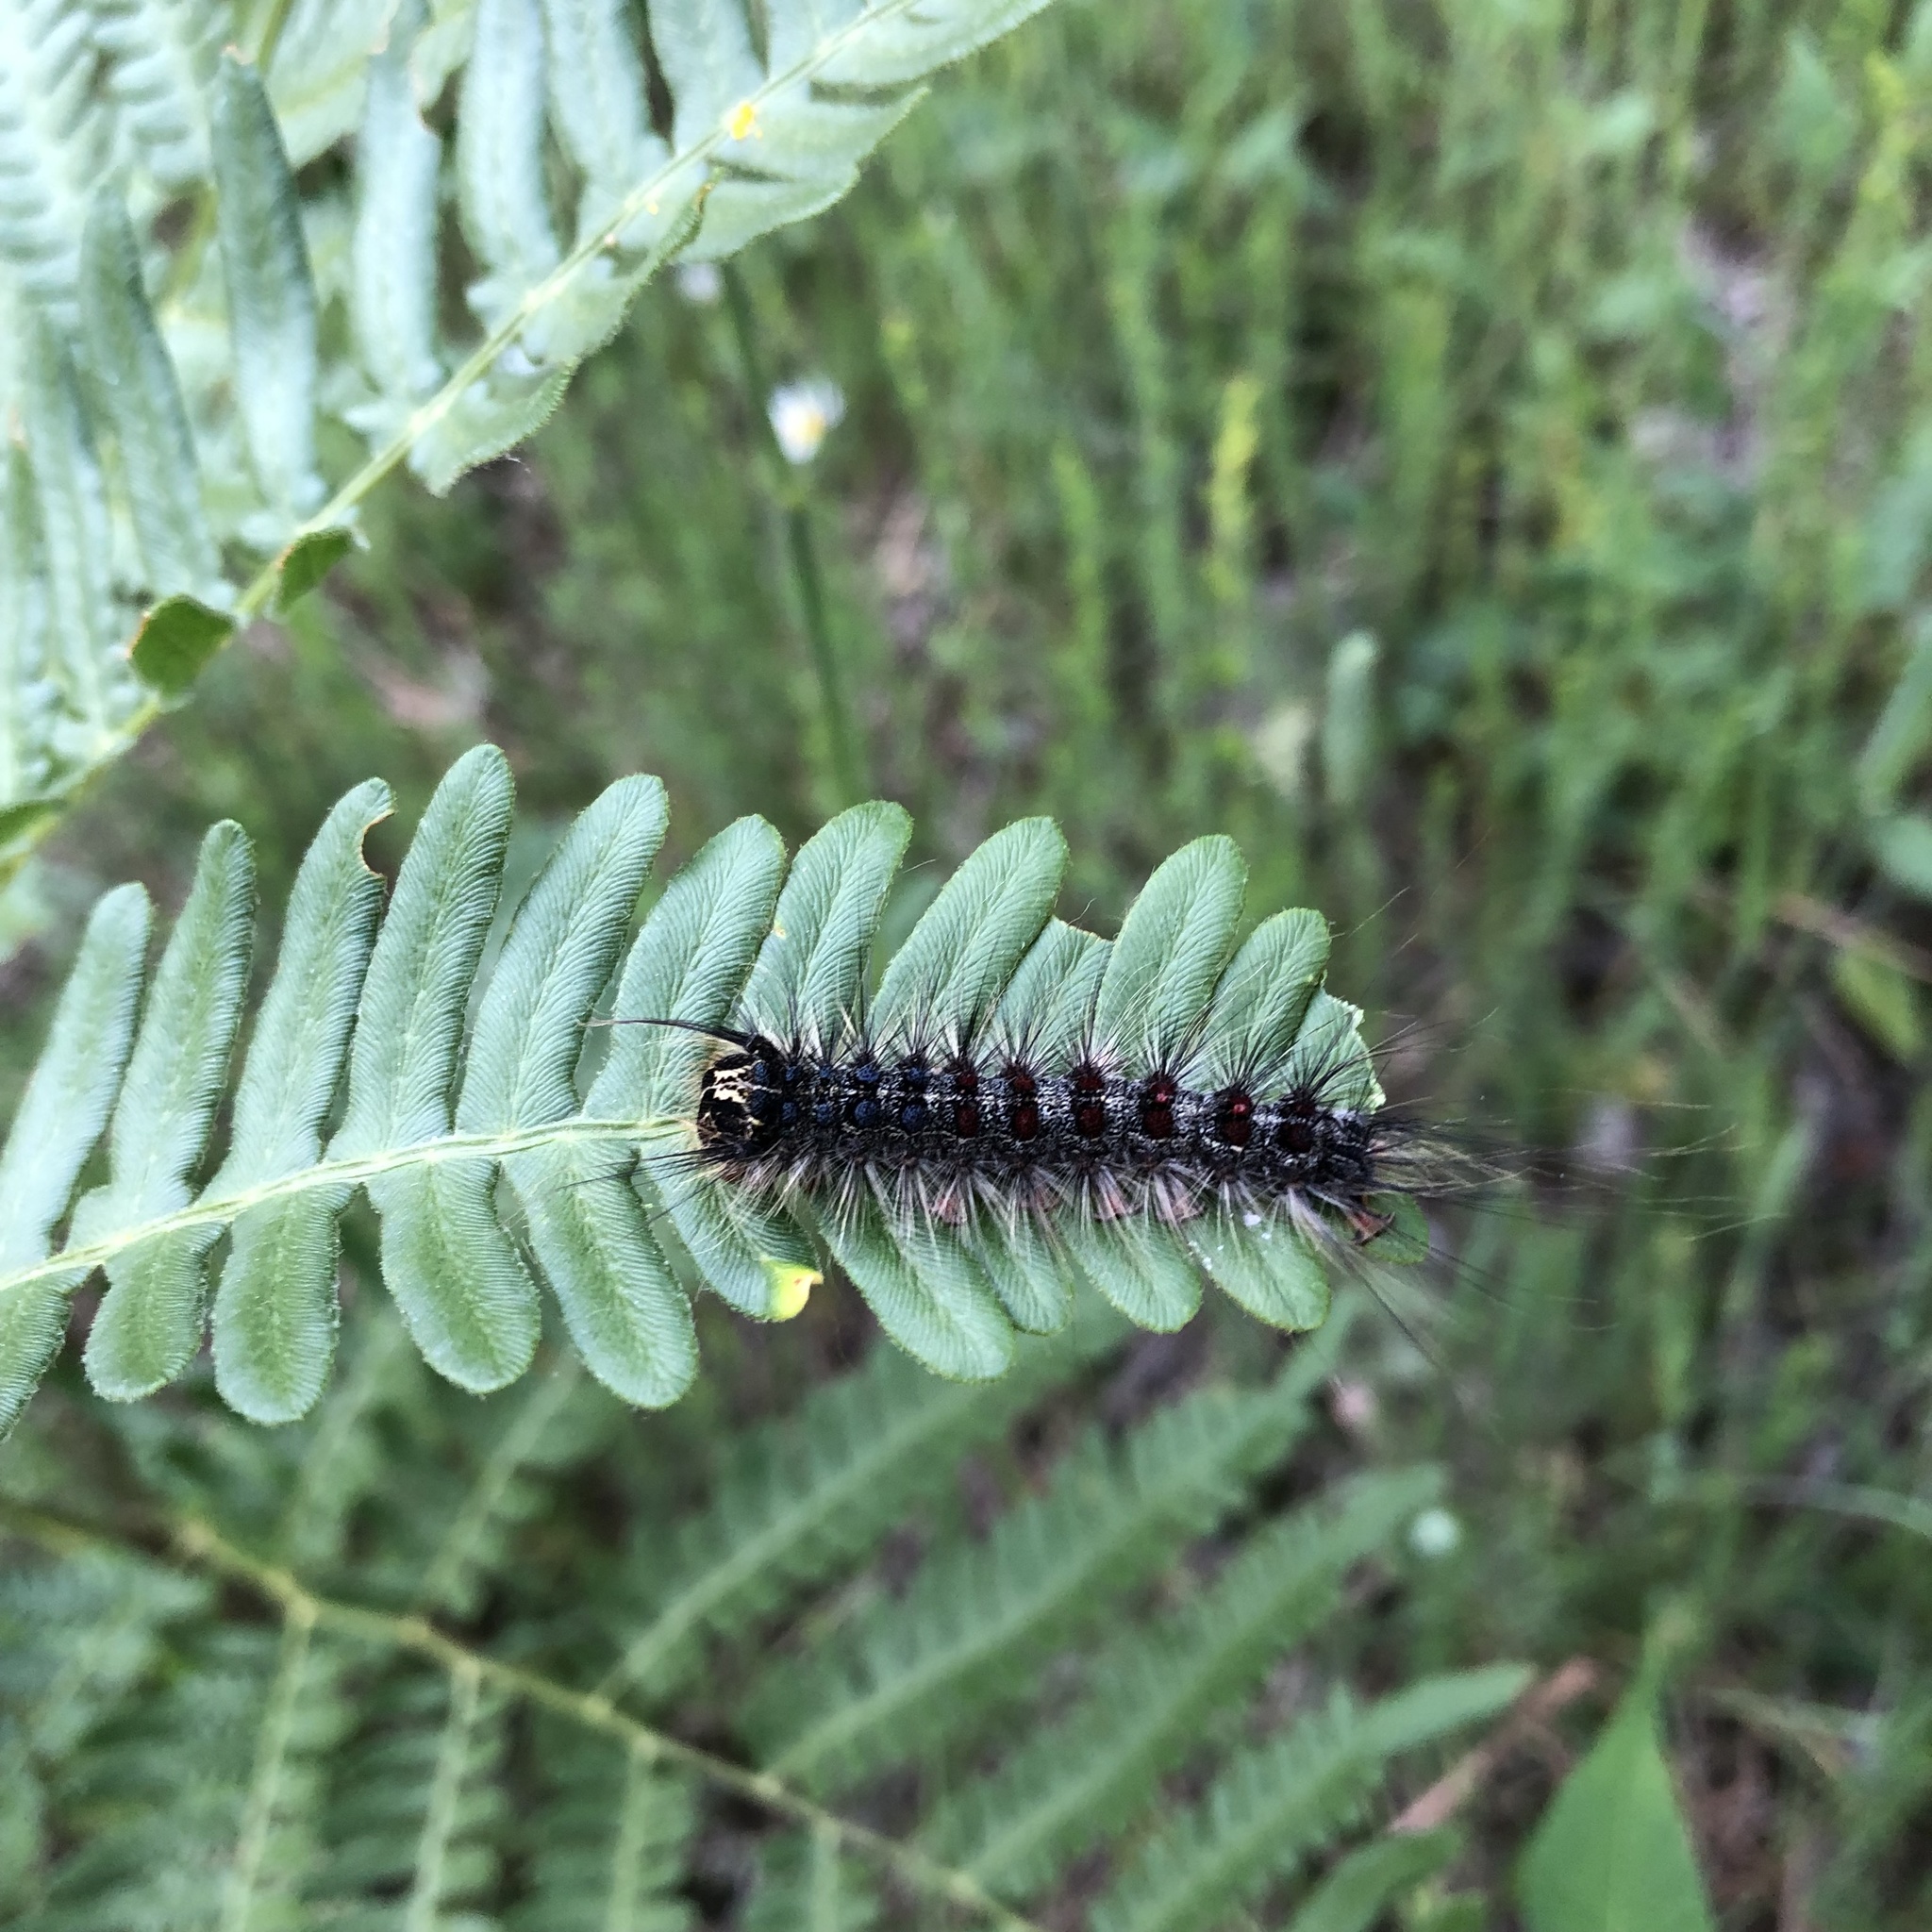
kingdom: Animalia
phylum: Arthropoda
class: Insecta
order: Lepidoptera
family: Erebidae
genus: Lymantria
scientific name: Lymantria dispar
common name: Gypsy moth
